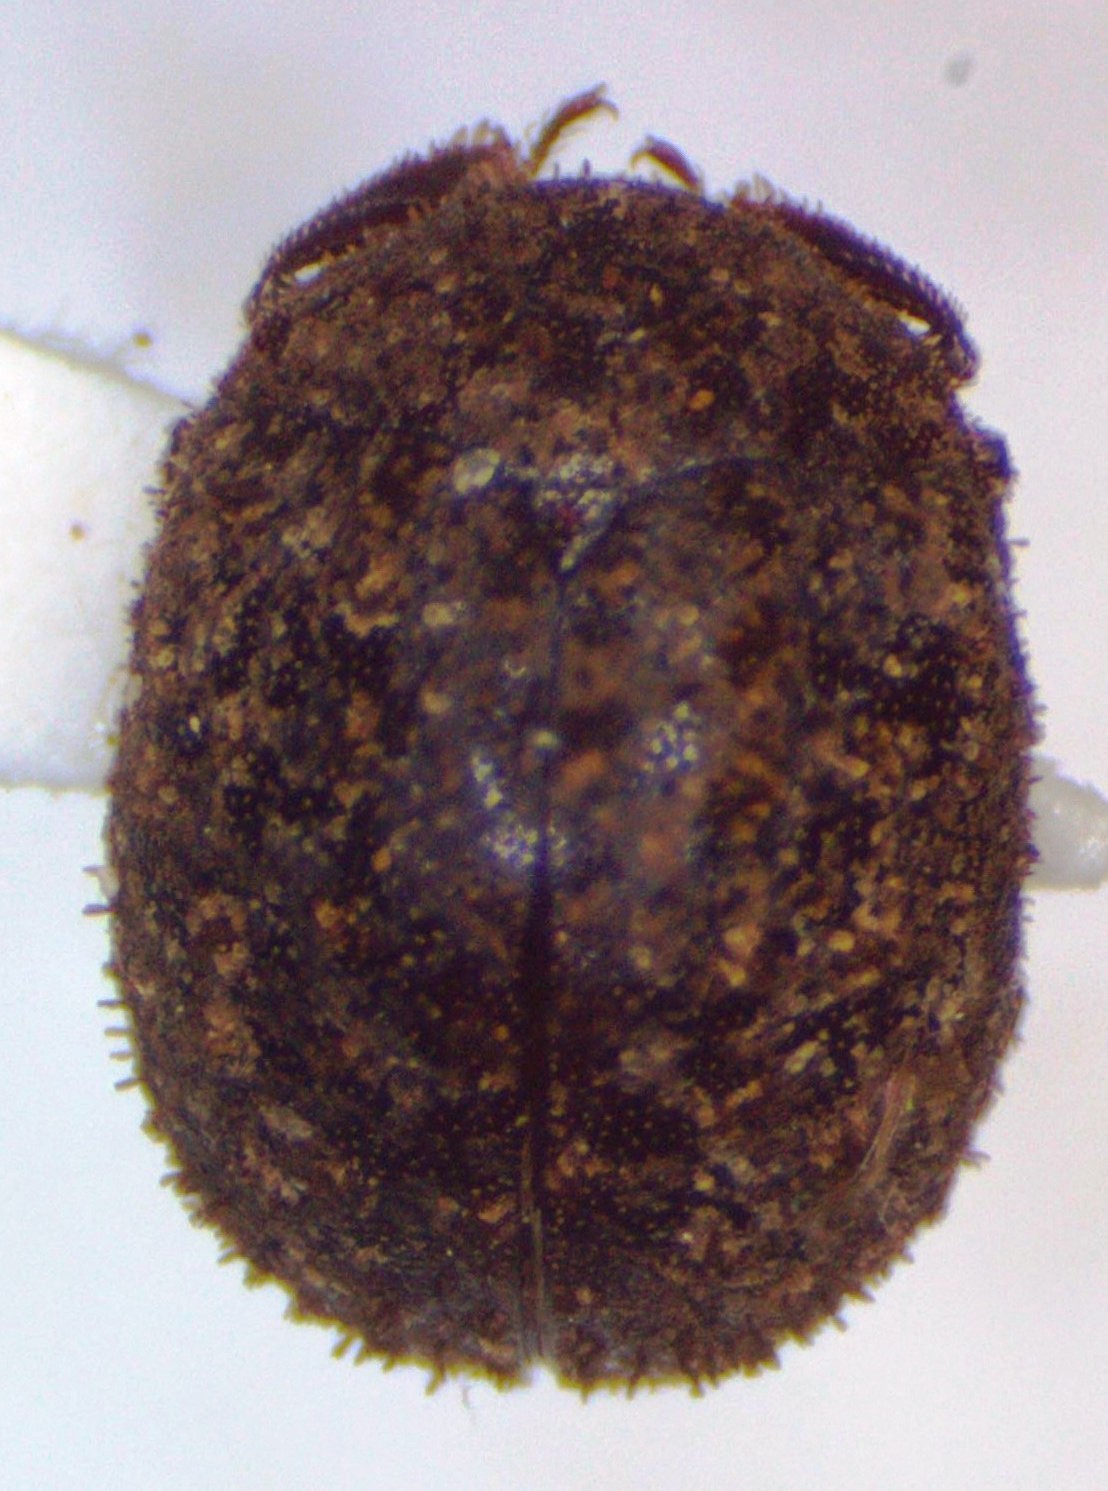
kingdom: Animalia
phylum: Arthropoda
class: Insecta
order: Coleoptera
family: Lucanidae
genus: Lucanobium
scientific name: Lucanobium guianense
